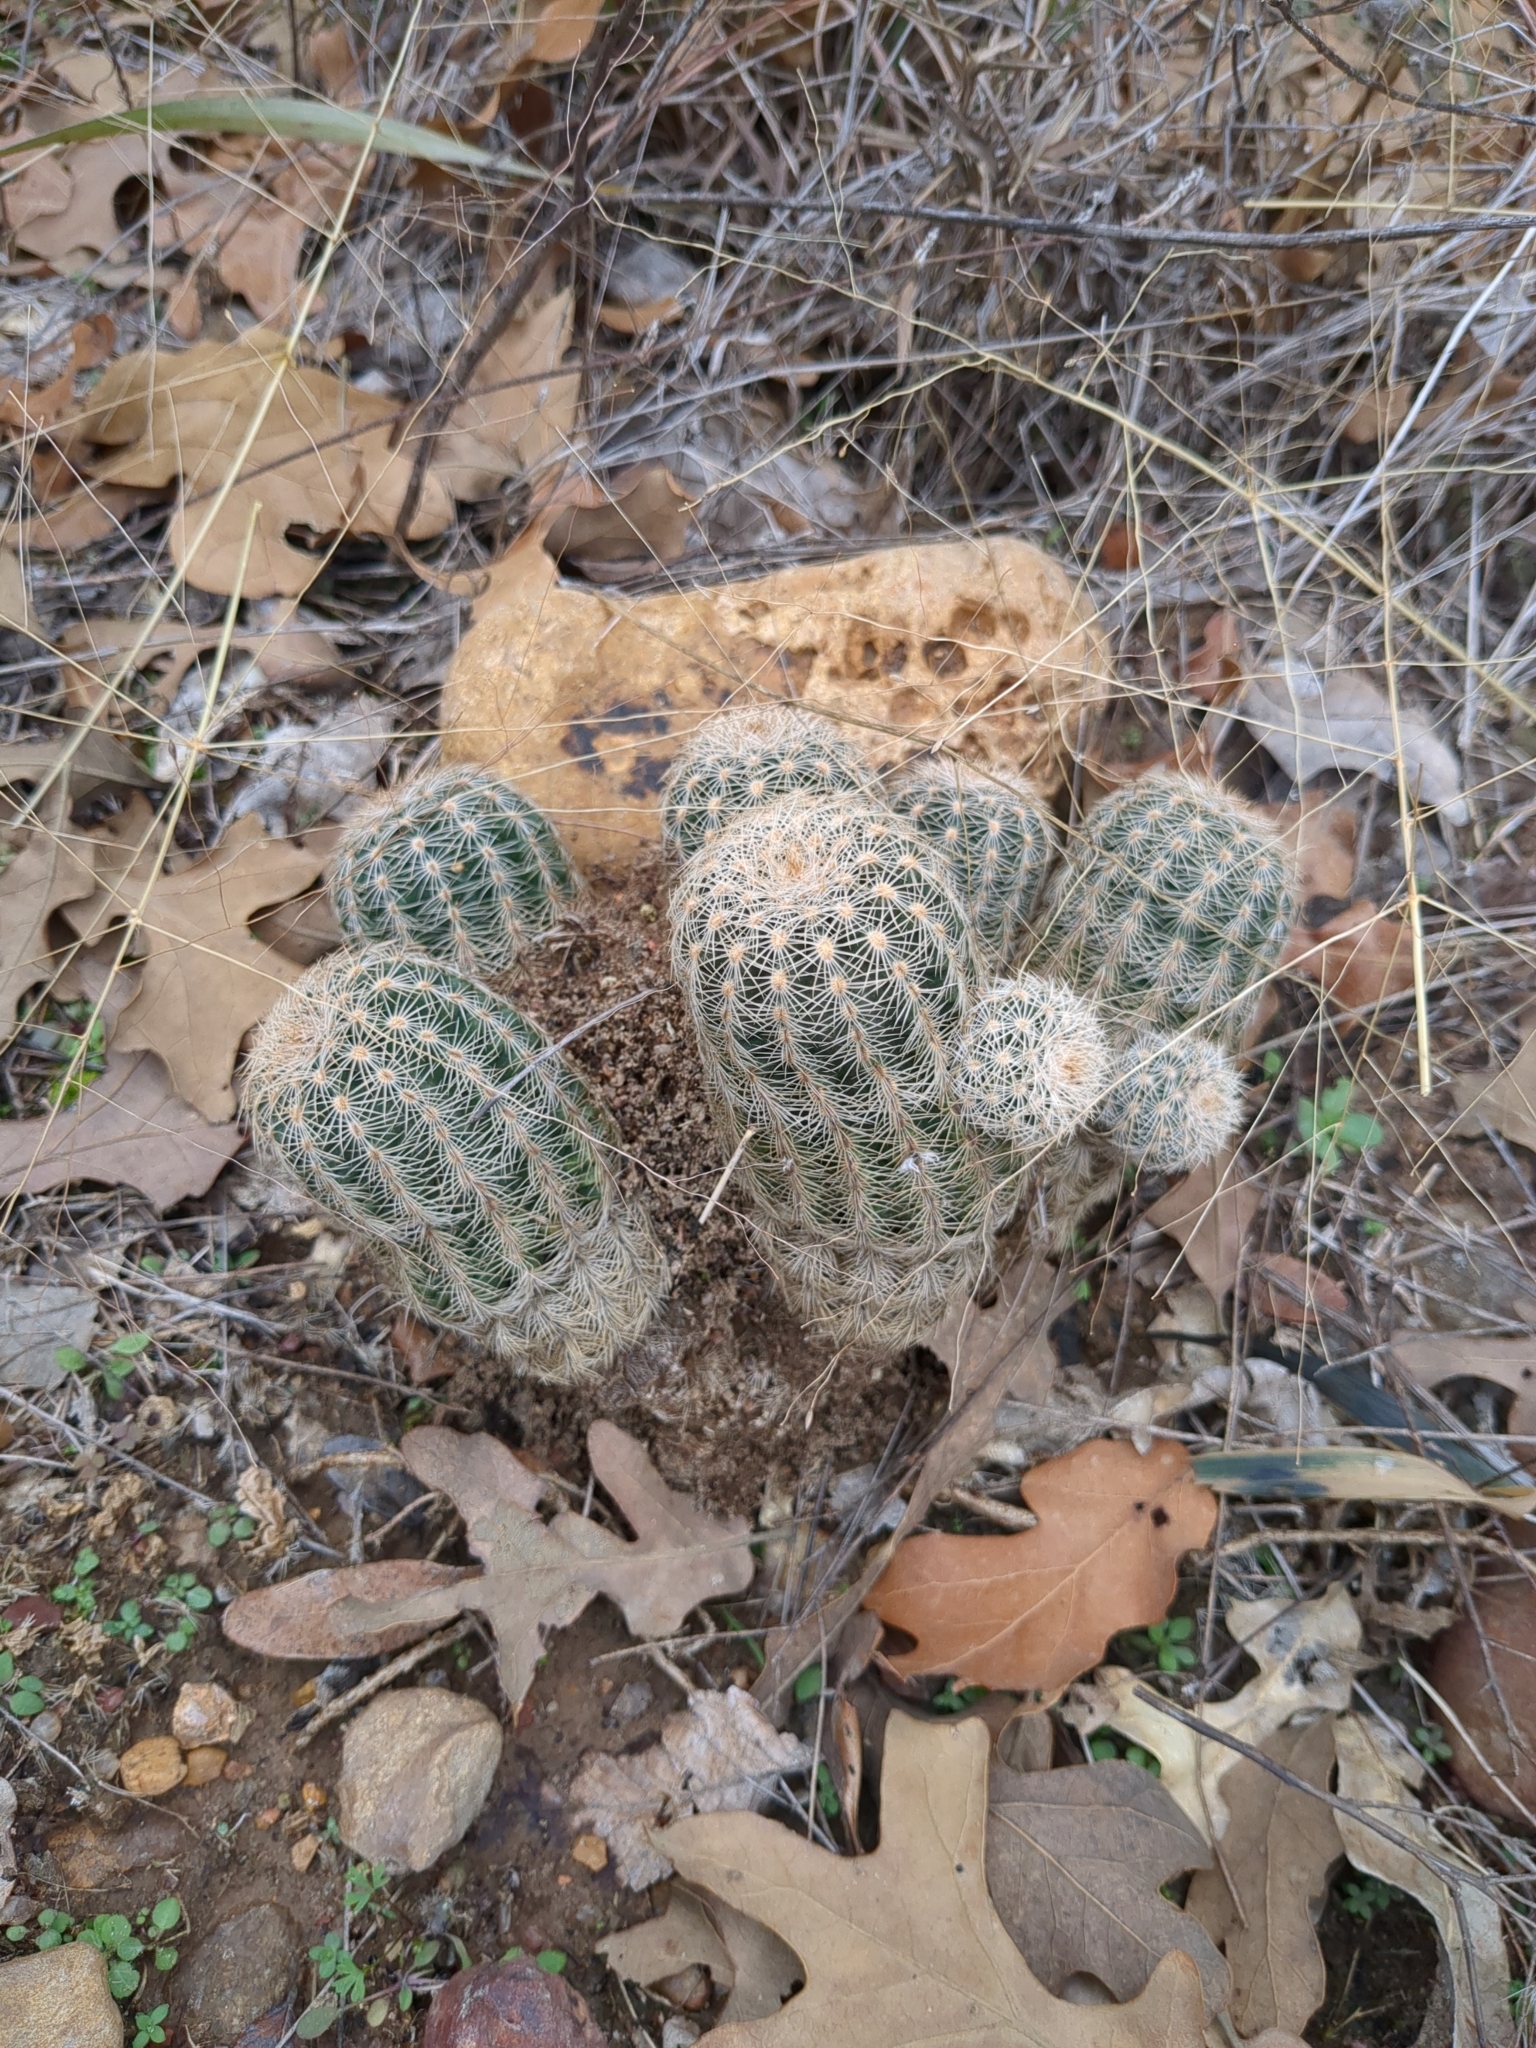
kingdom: Plantae
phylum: Tracheophyta
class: Magnoliopsida
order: Caryophyllales
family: Cactaceae
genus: Echinocereus
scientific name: Echinocereus reichenbachii
